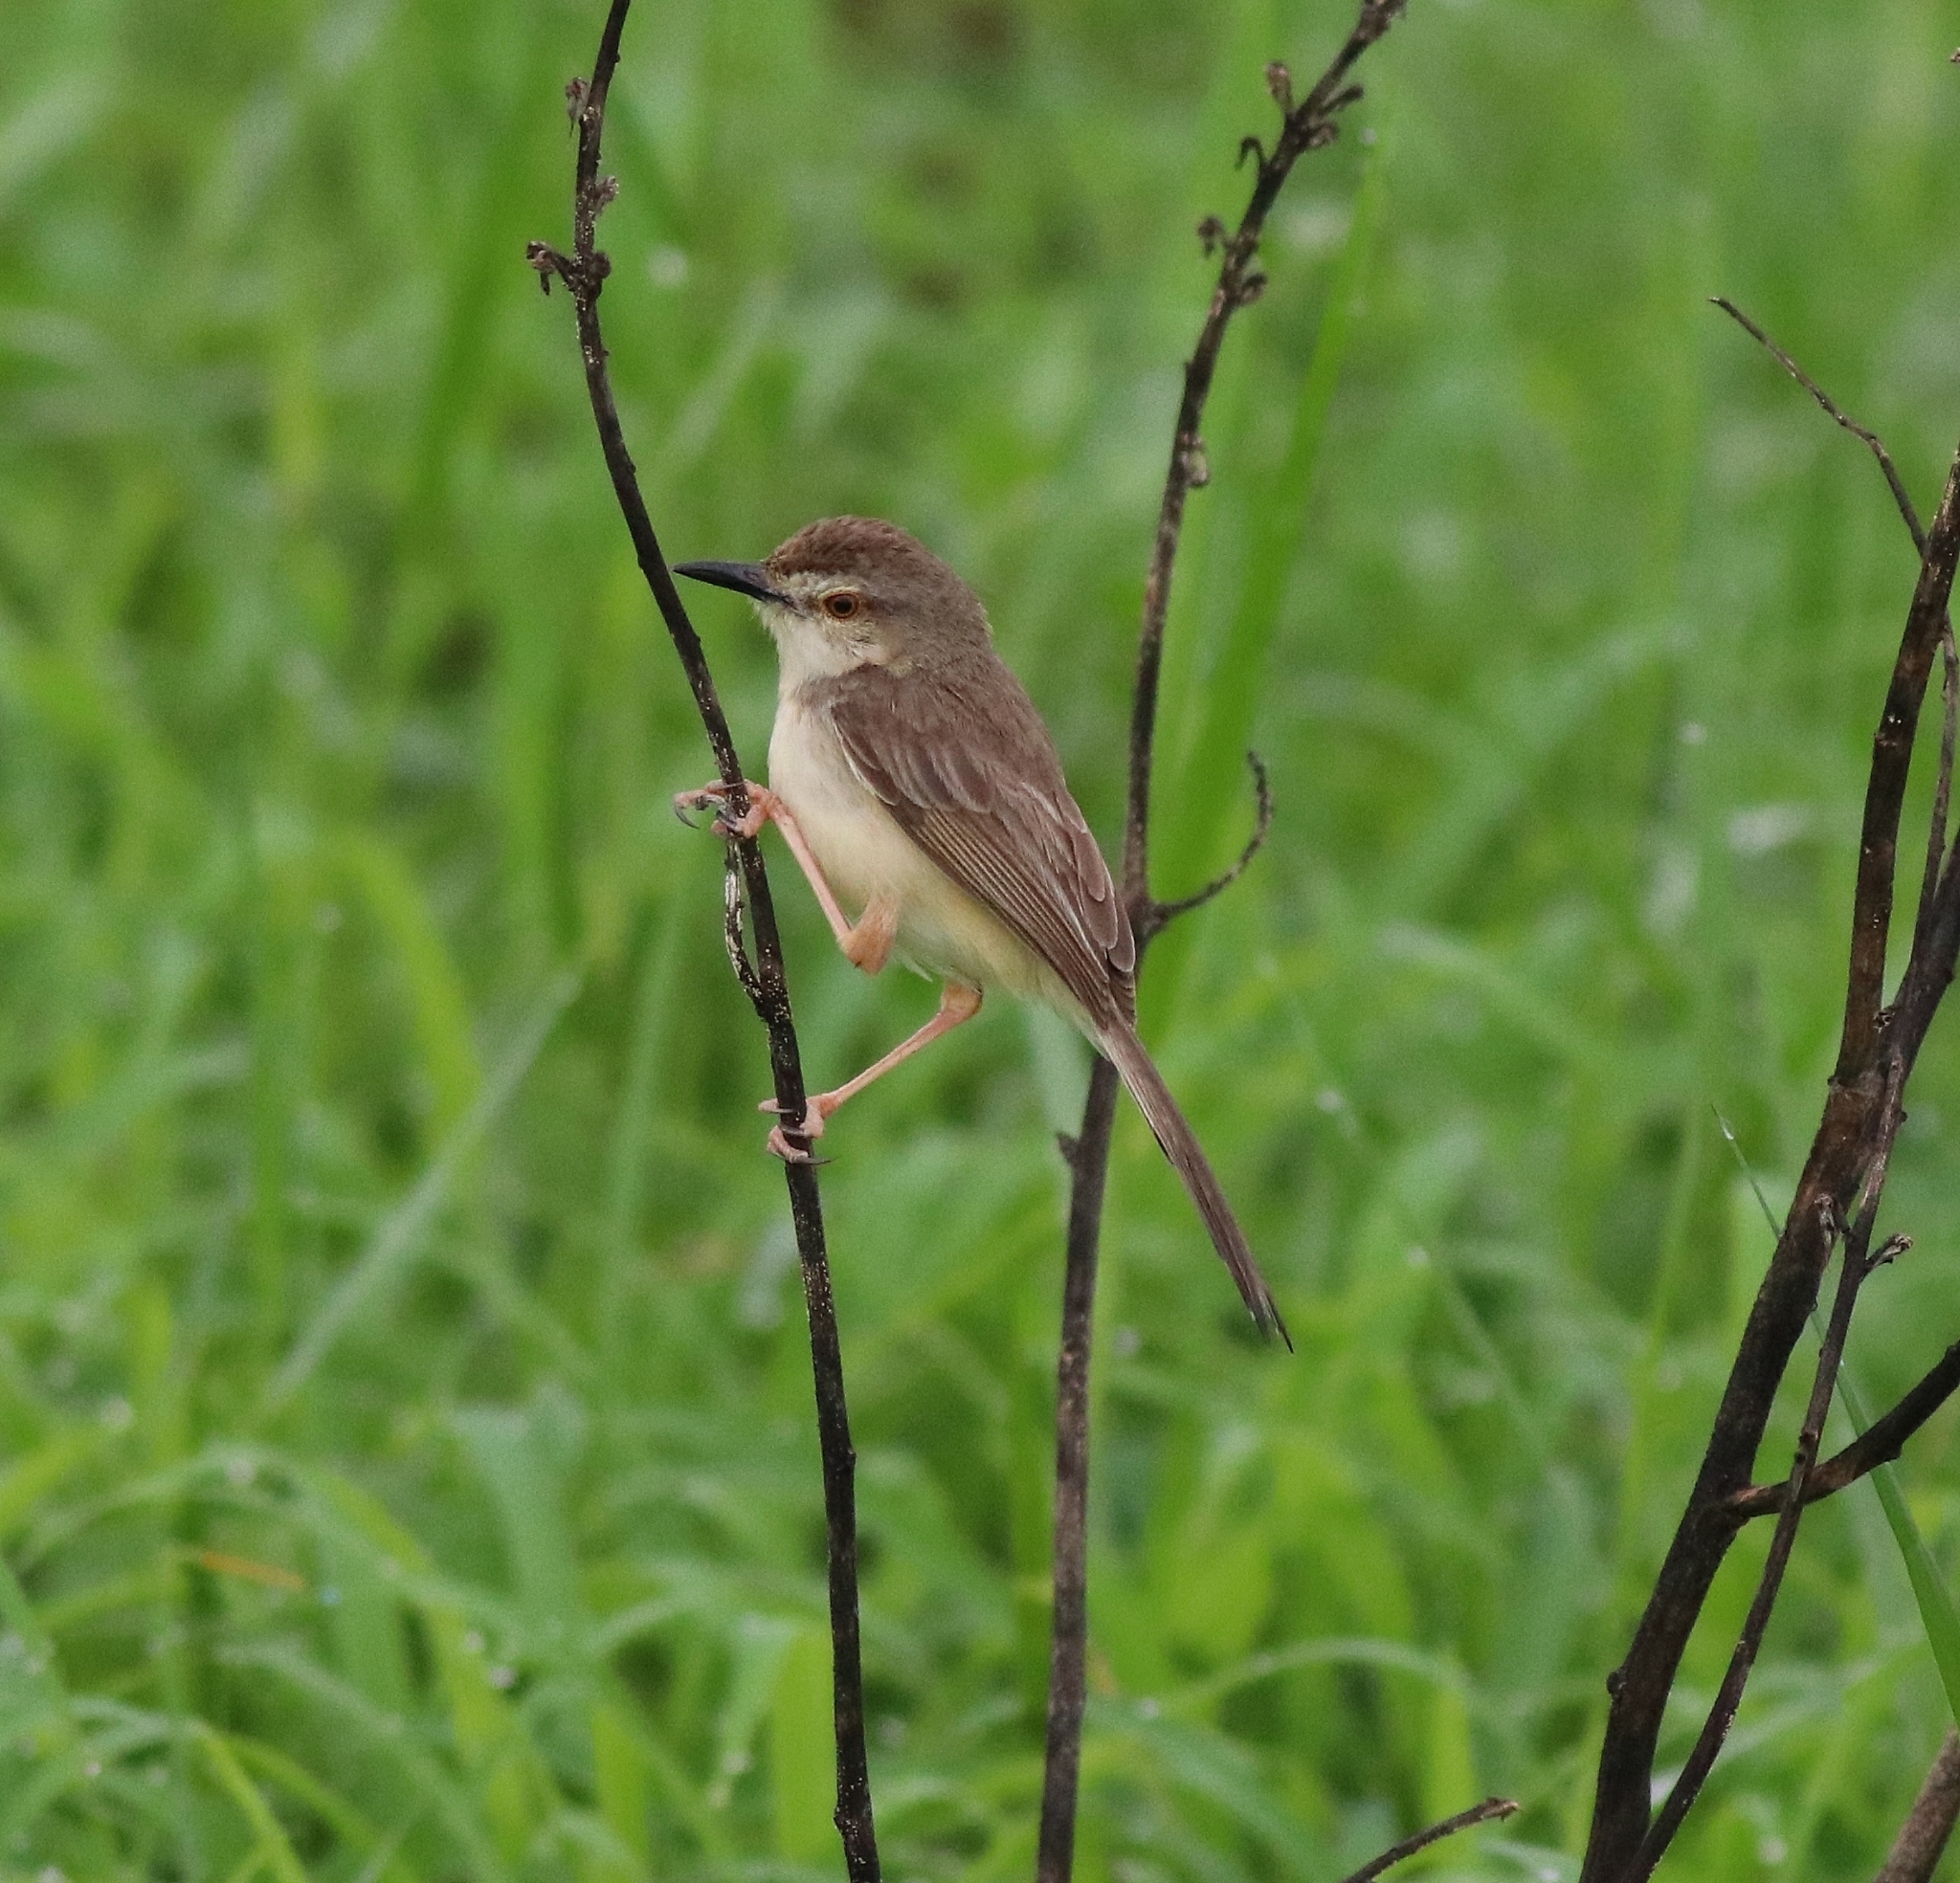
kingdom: Animalia
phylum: Chordata
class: Aves
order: Passeriformes
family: Cisticolidae
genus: Prinia
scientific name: Prinia inornata
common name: Plain prinia
